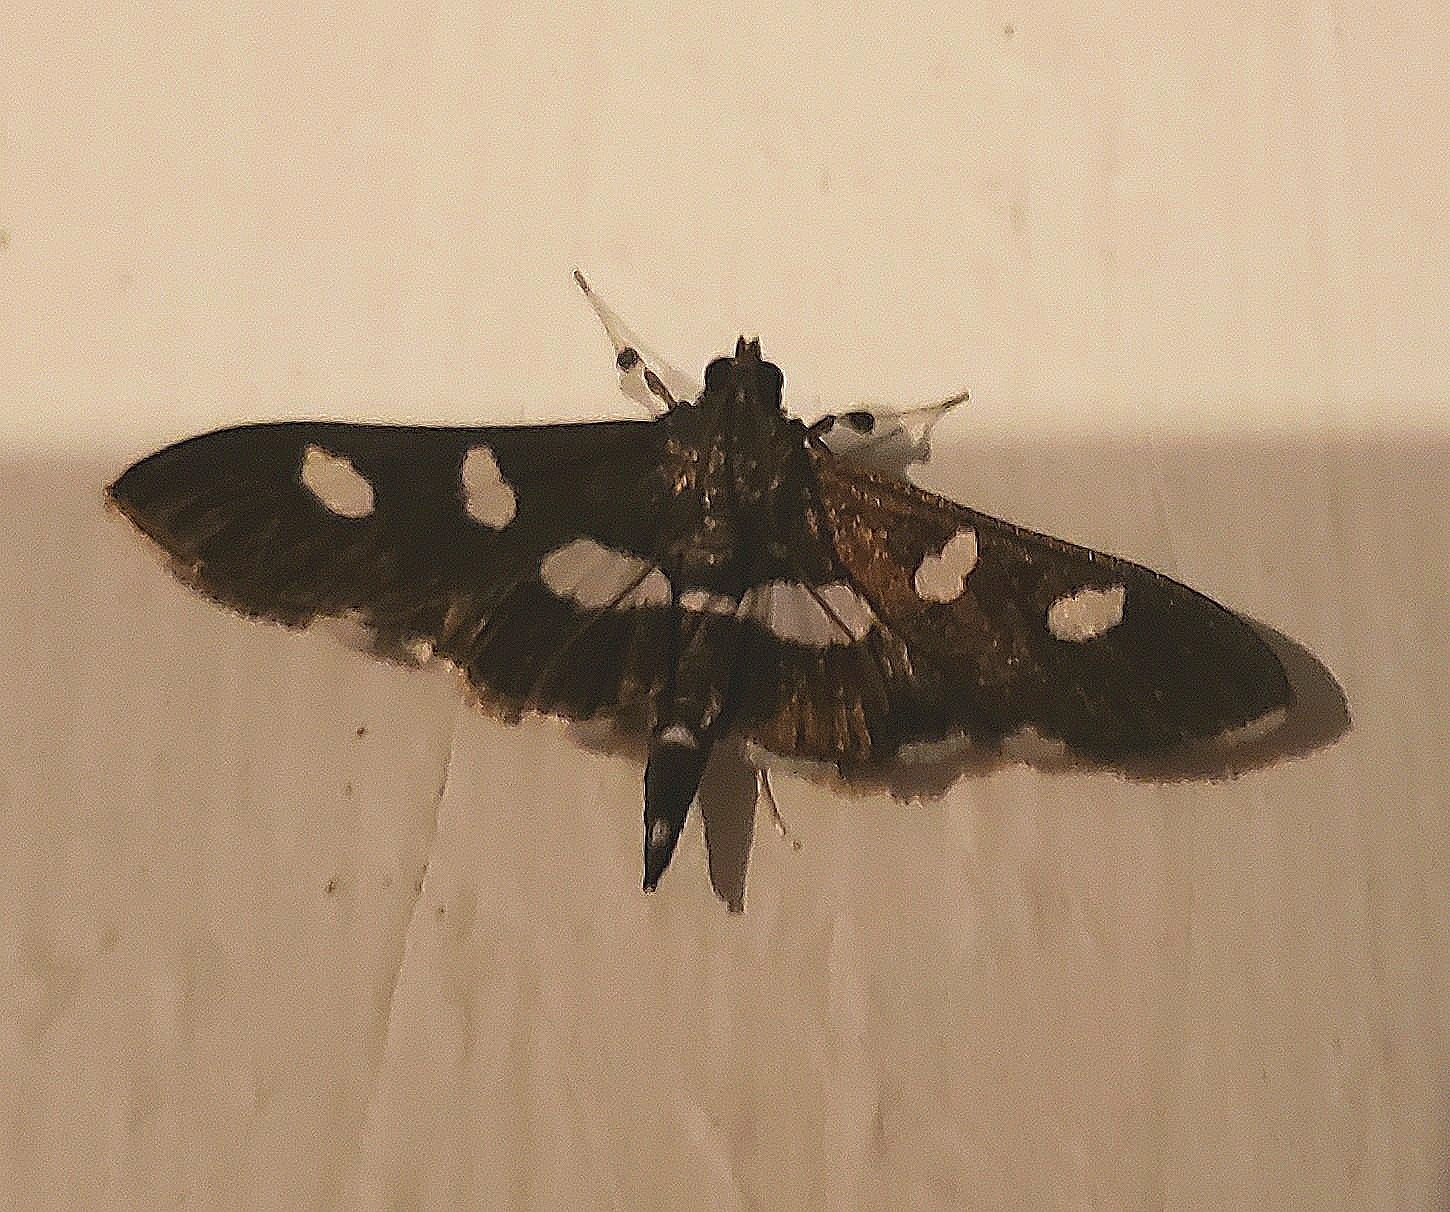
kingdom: Animalia
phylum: Arthropoda
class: Insecta
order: Lepidoptera
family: Crambidae
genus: Desmia
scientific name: Desmia
